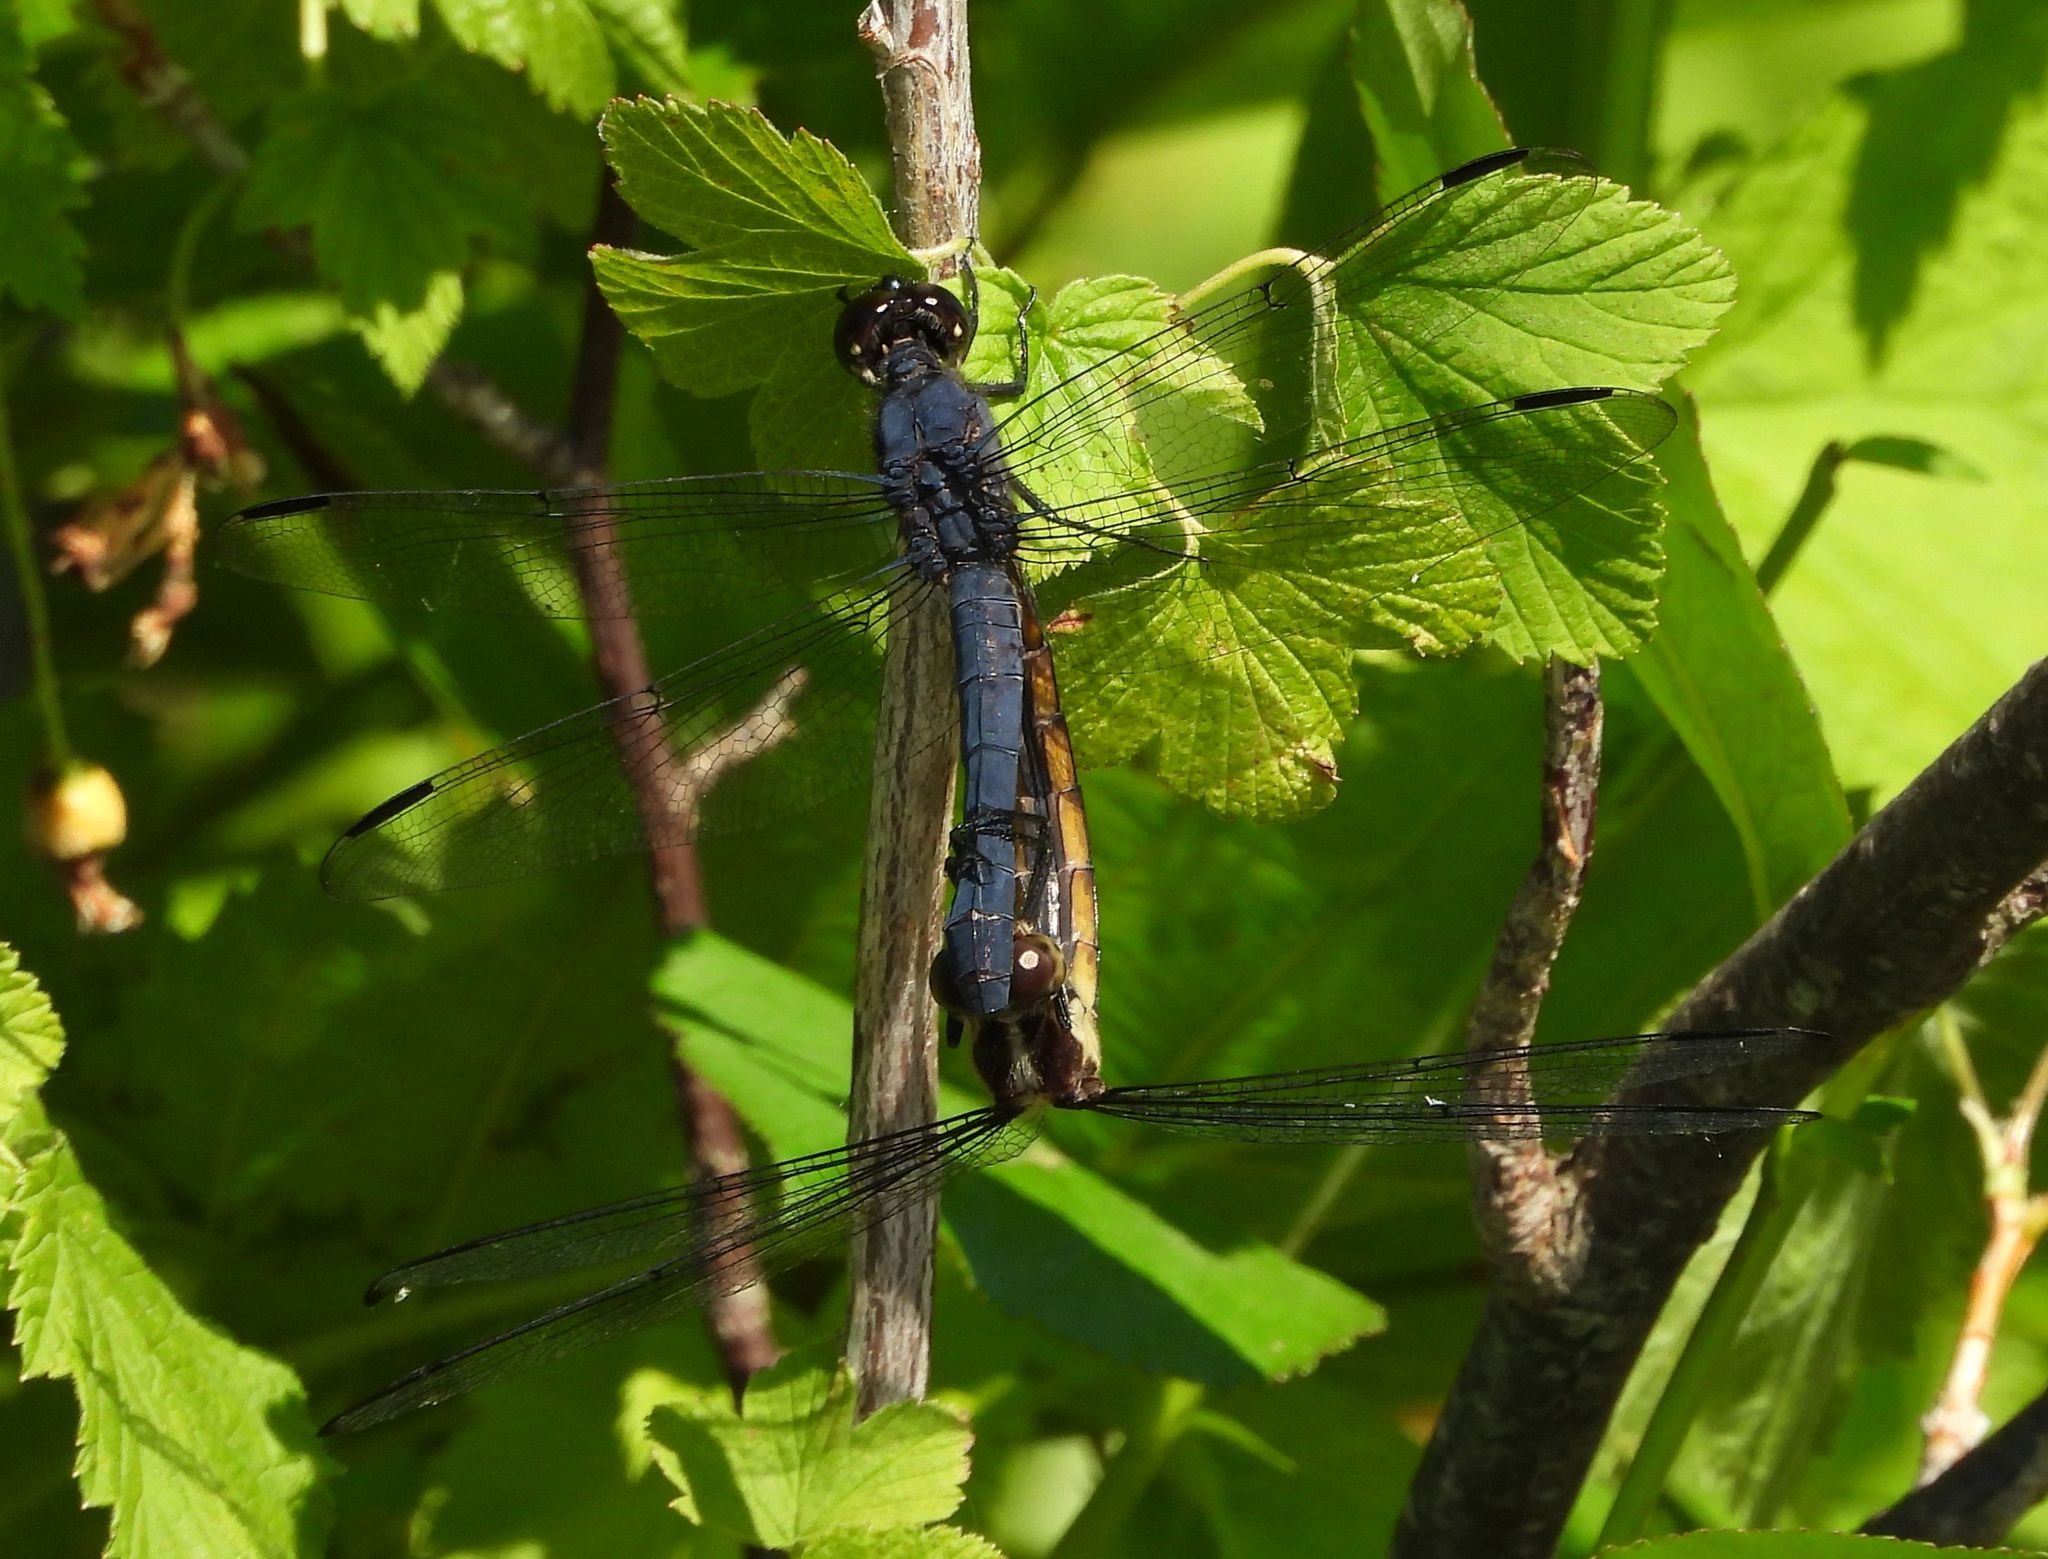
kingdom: Animalia
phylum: Arthropoda
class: Insecta
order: Odonata
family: Libellulidae
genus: Libellula
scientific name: Libellula incesta
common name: Slaty skimmer
